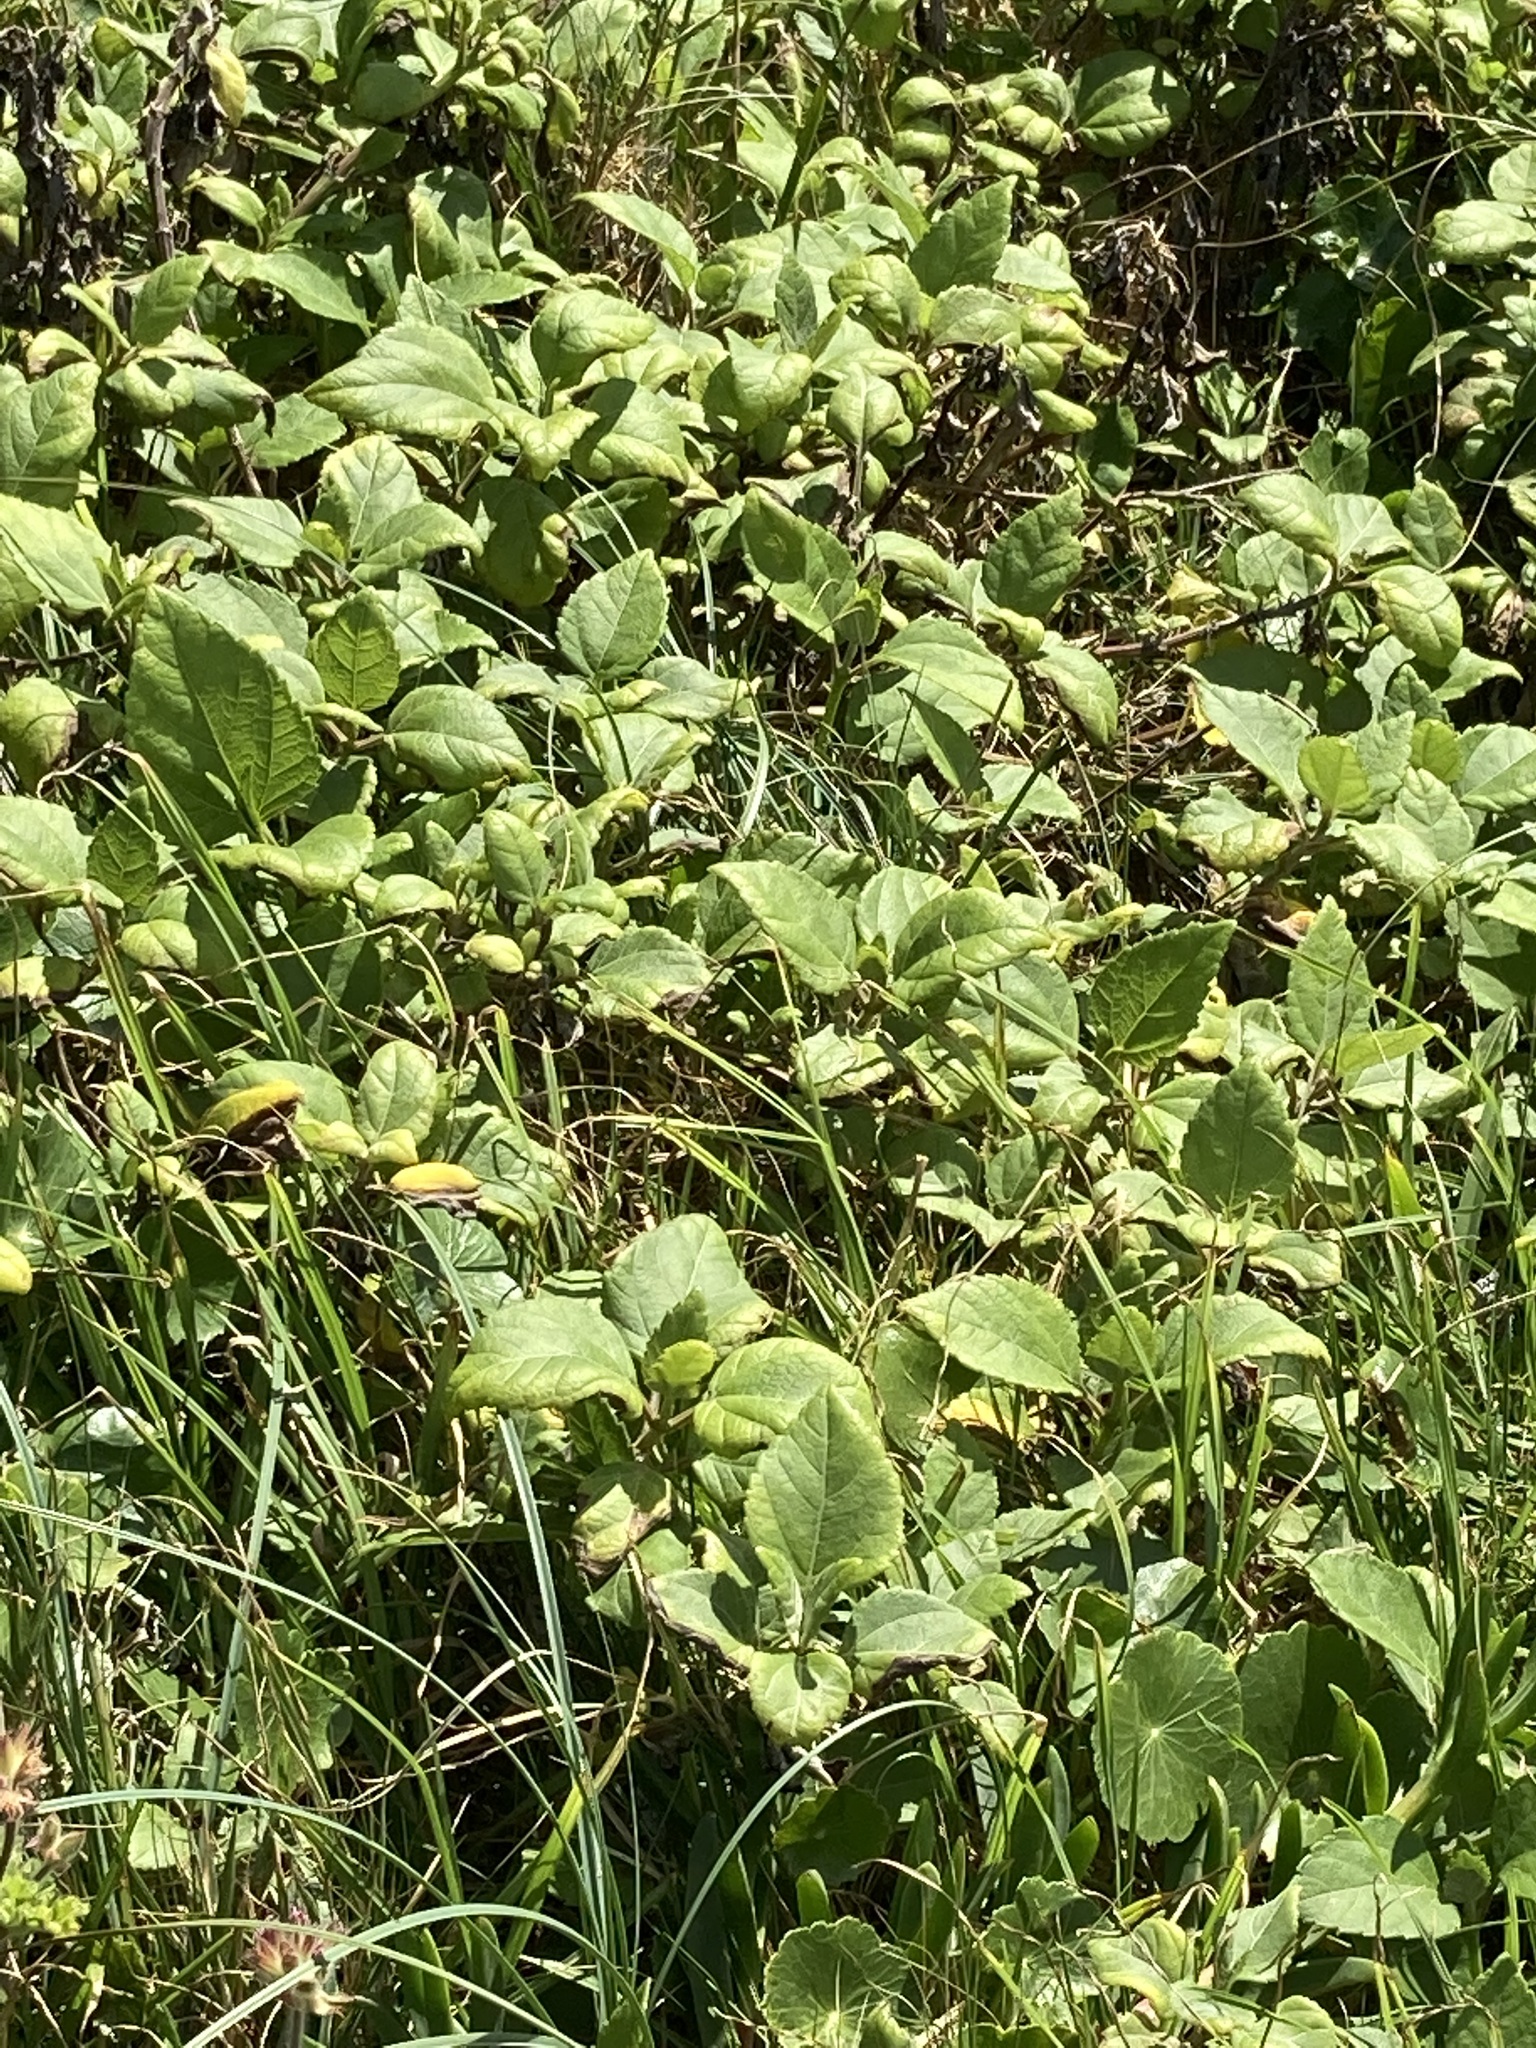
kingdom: Plantae
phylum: Tracheophyta
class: Magnoliopsida
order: Asterales
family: Asteraceae
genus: Wollastonia
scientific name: Wollastonia uniflora
